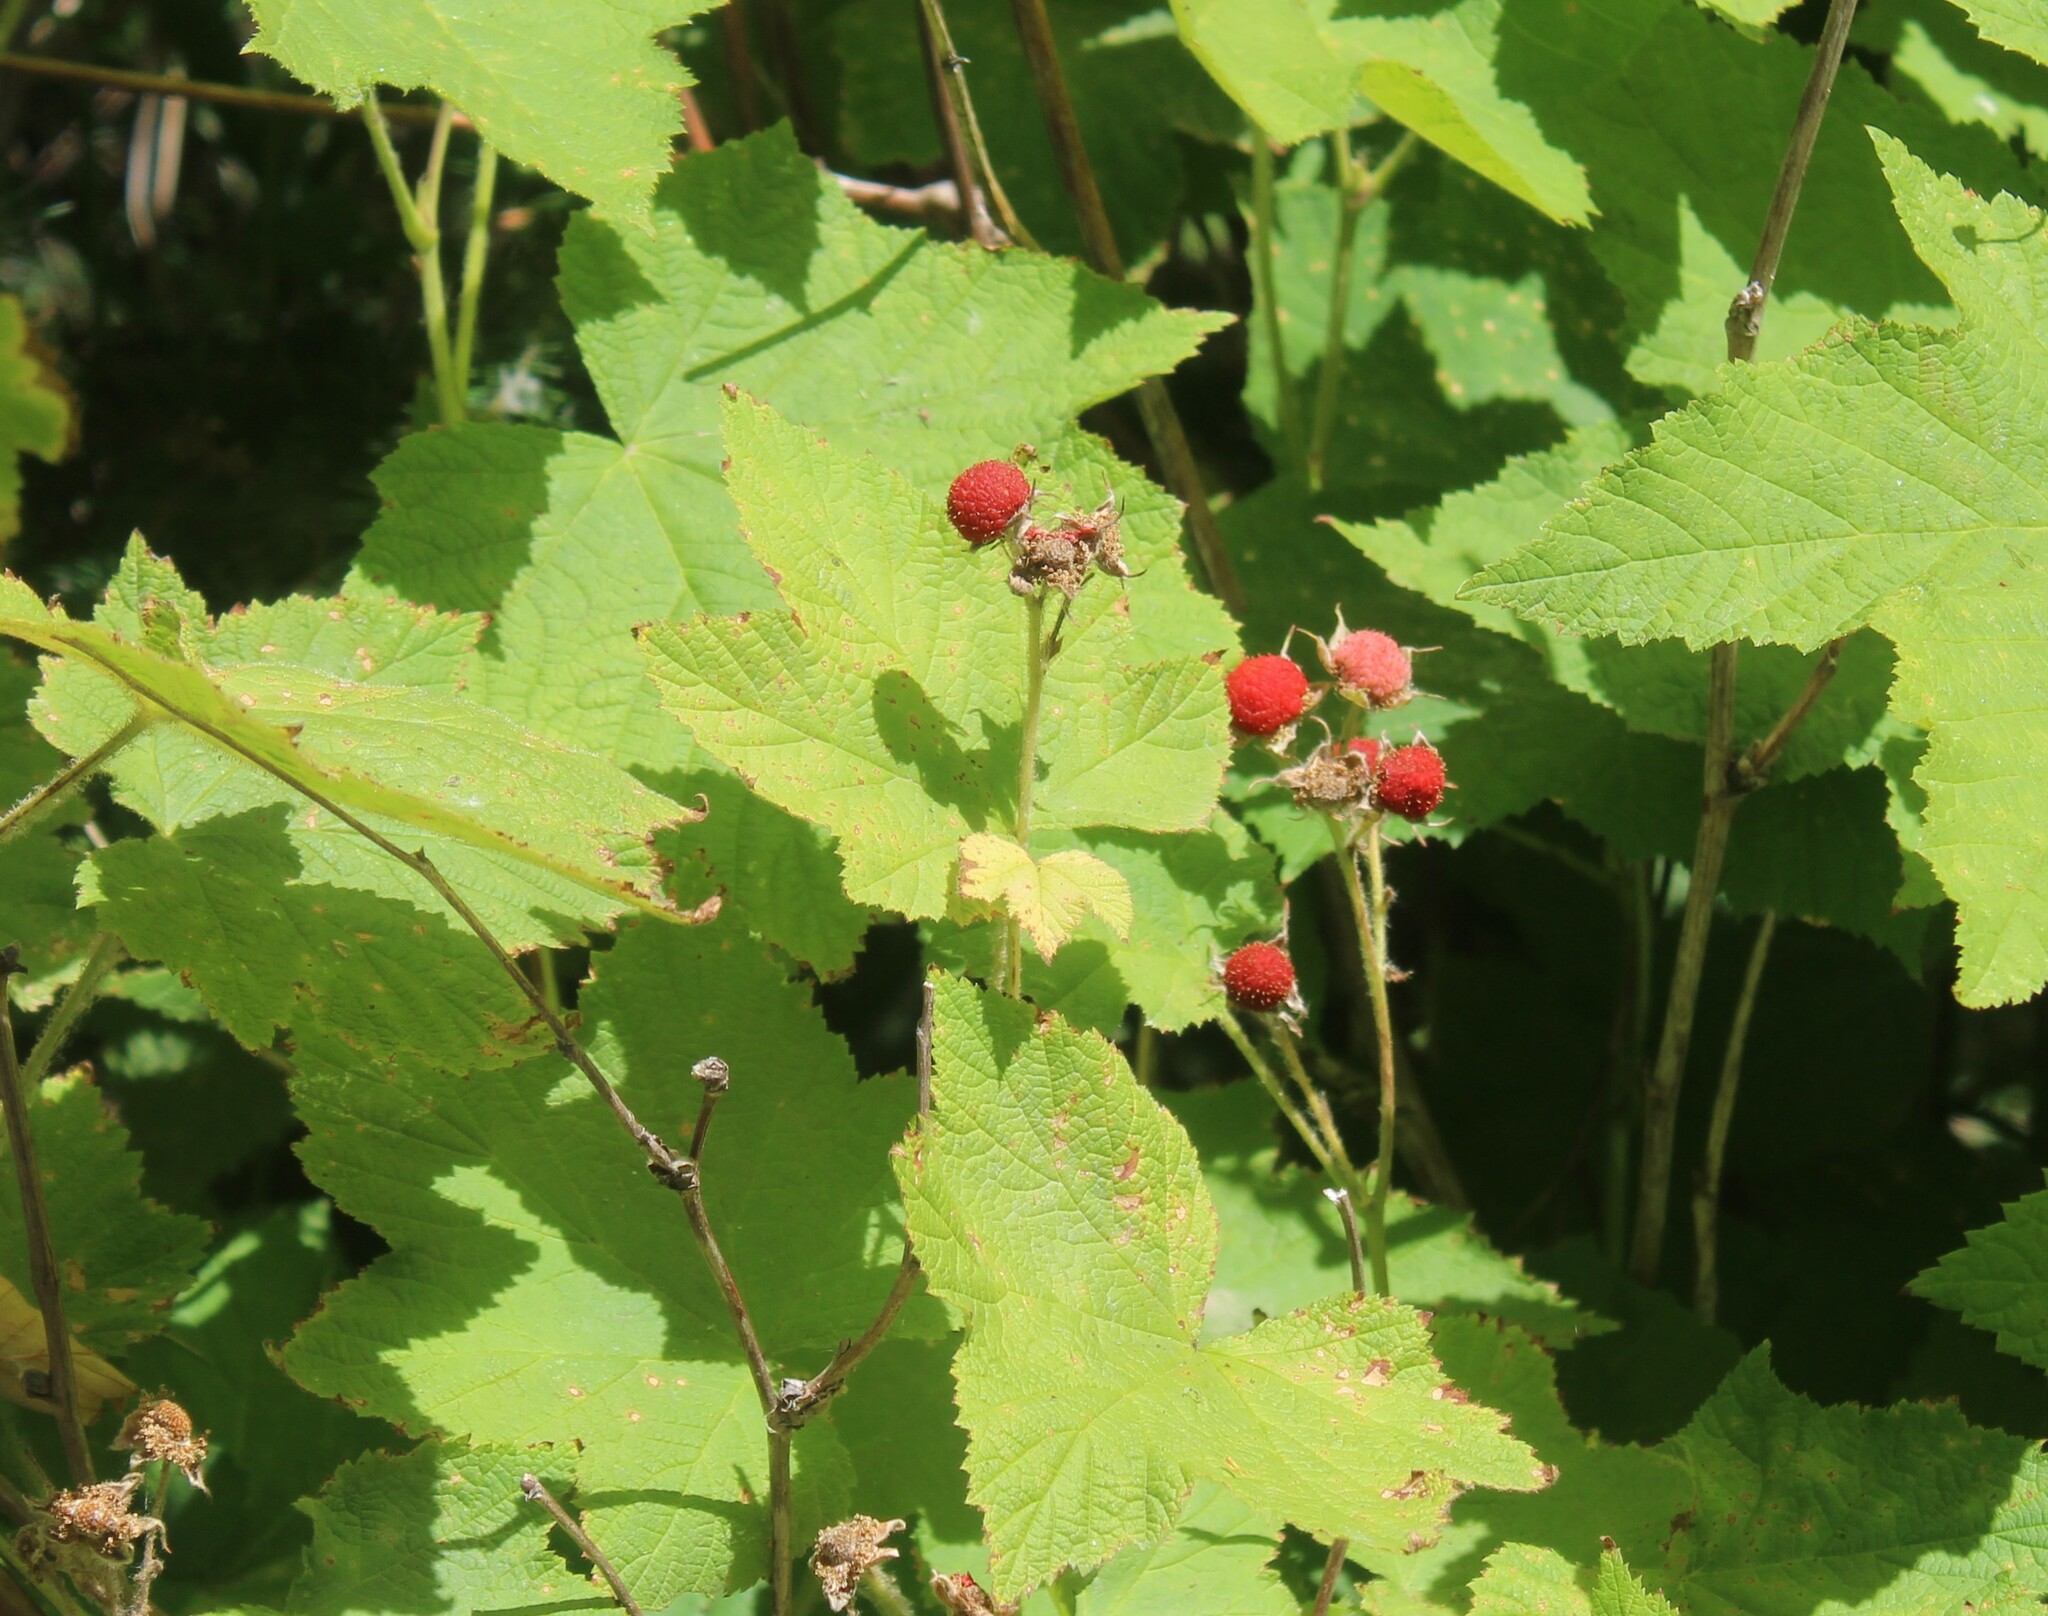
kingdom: Plantae
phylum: Tracheophyta
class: Magnoliopsida
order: Rosales
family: Rosaceae
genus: Rubus
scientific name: Rubus parviflorus
